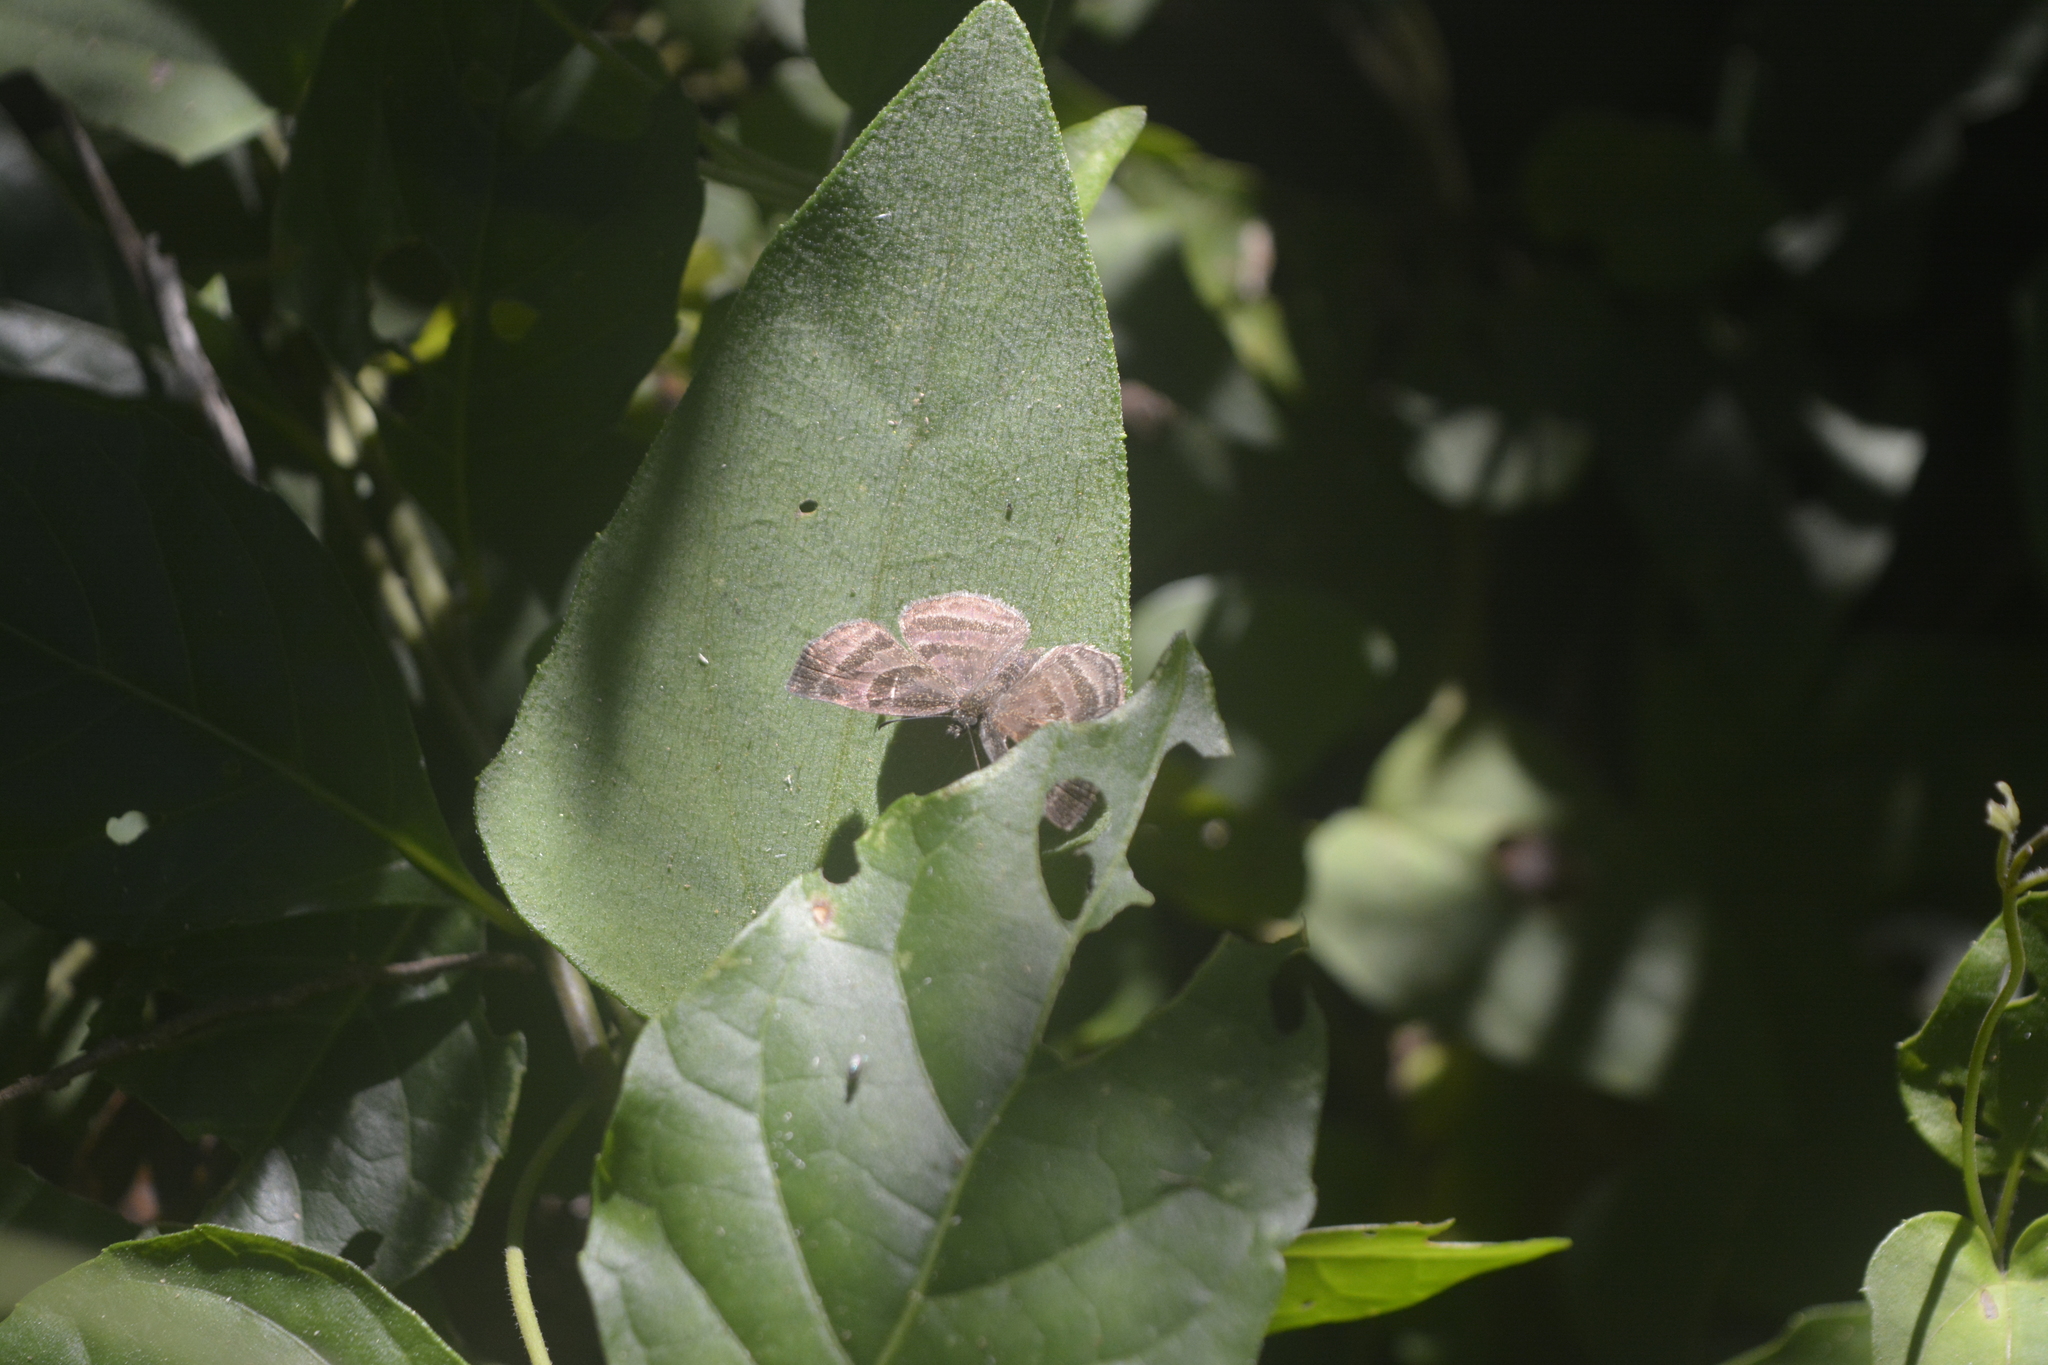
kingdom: Animalia
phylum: Arthropoda
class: Insecta
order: Lepidoptera
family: Hesperiidae
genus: Trina
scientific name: Trina geometrina
